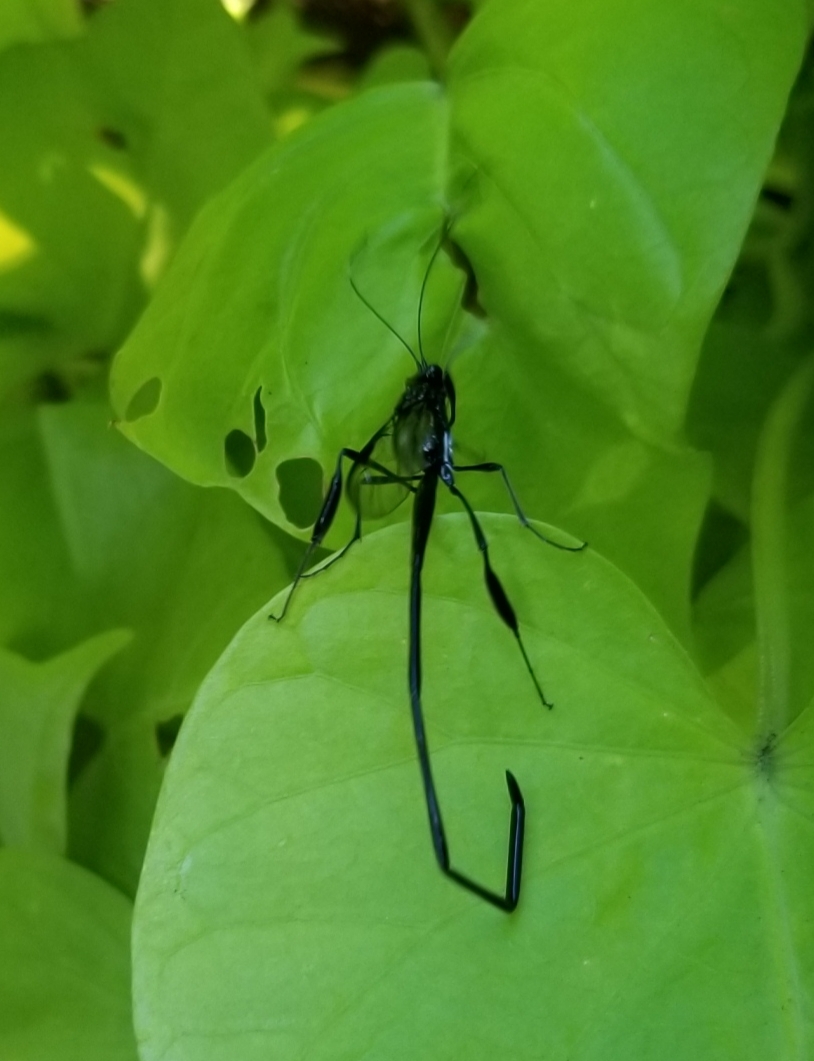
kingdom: Animalia
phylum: Arthropoda
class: Insecta
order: Hymenoptera
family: Pelecinidae
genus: Pelecinus
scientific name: Pelecinus polyturator
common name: American pelecinid wasp
